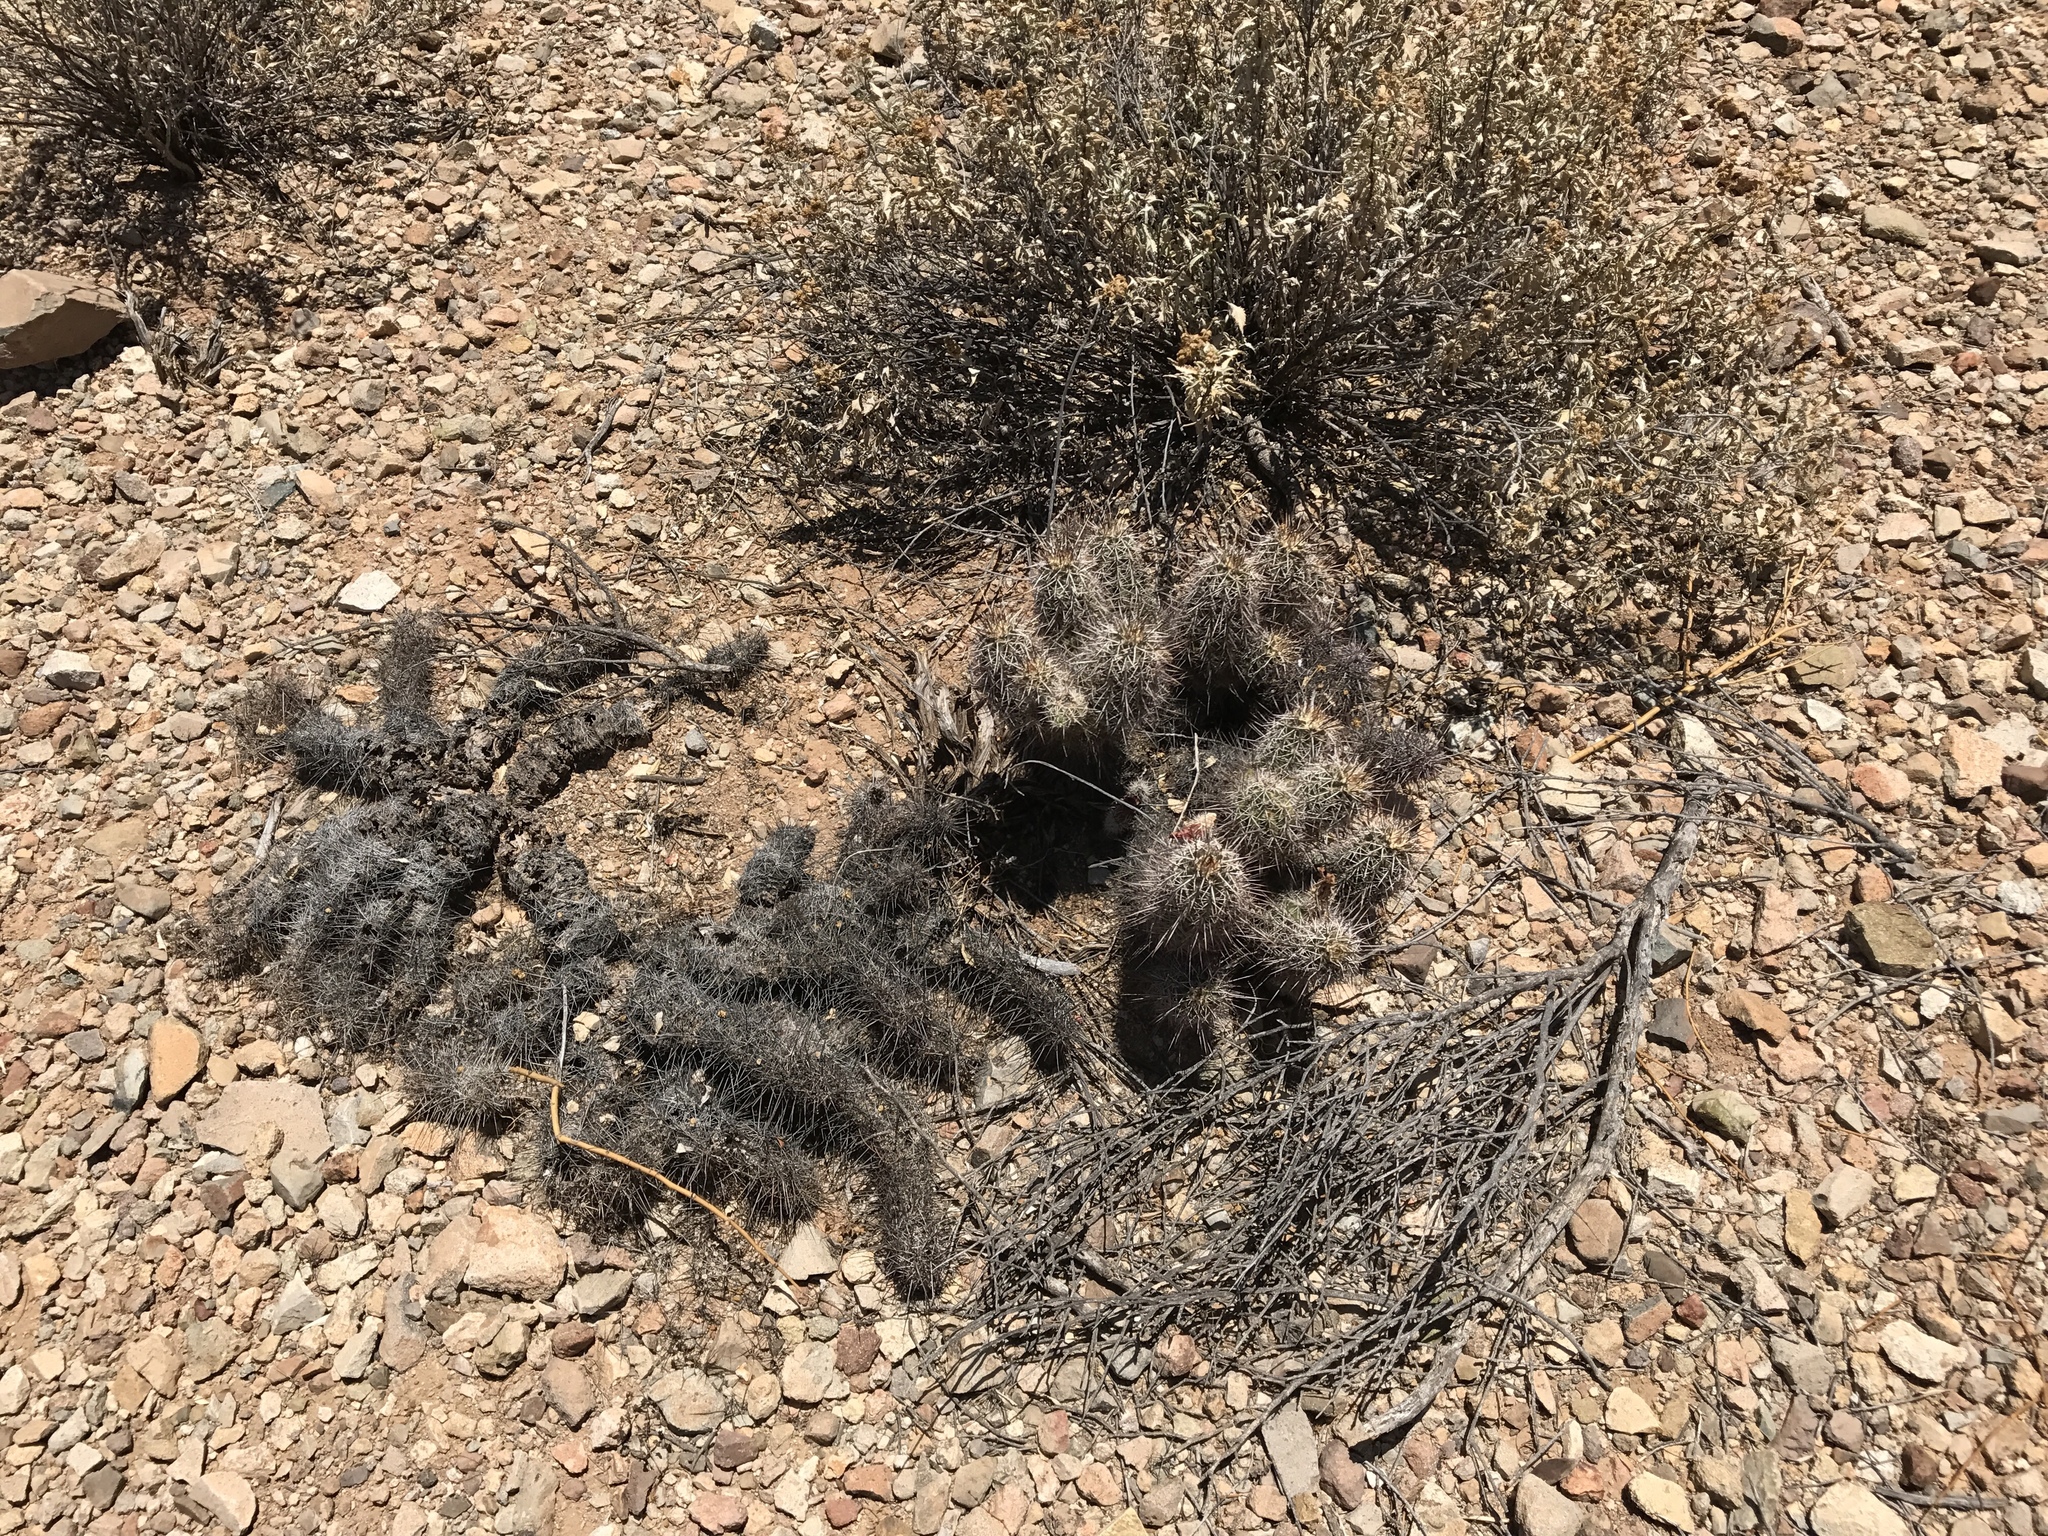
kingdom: Plantae
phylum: Tracheophyta
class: Magnoliopsida
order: Caryophyllales
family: Cactaceae
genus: Echinocereus
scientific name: Echinocereus fasciculatus
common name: Bundle hedgehog
